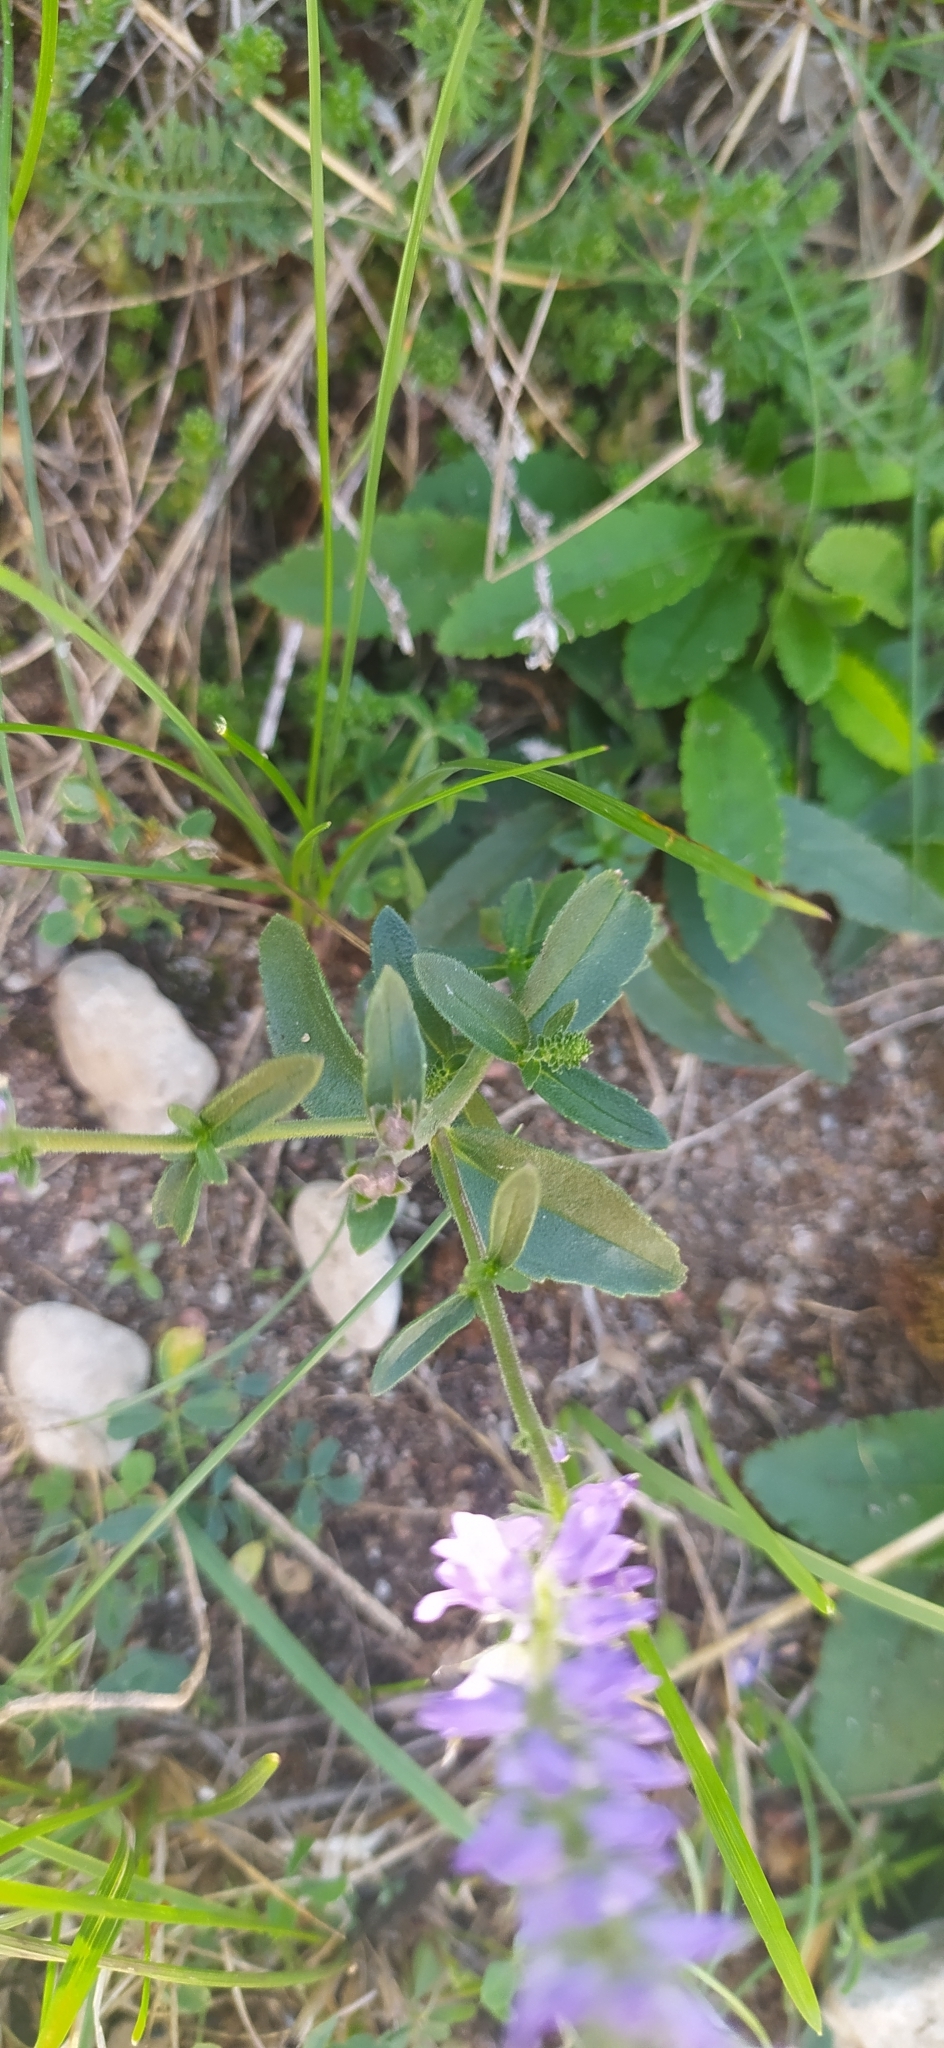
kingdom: Plantae
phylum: Tracheophyta
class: Magnoliopsida
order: Lamiales
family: Plantaginaceae
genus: Veronica
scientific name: Veronica spicata
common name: Spiked speedwell
